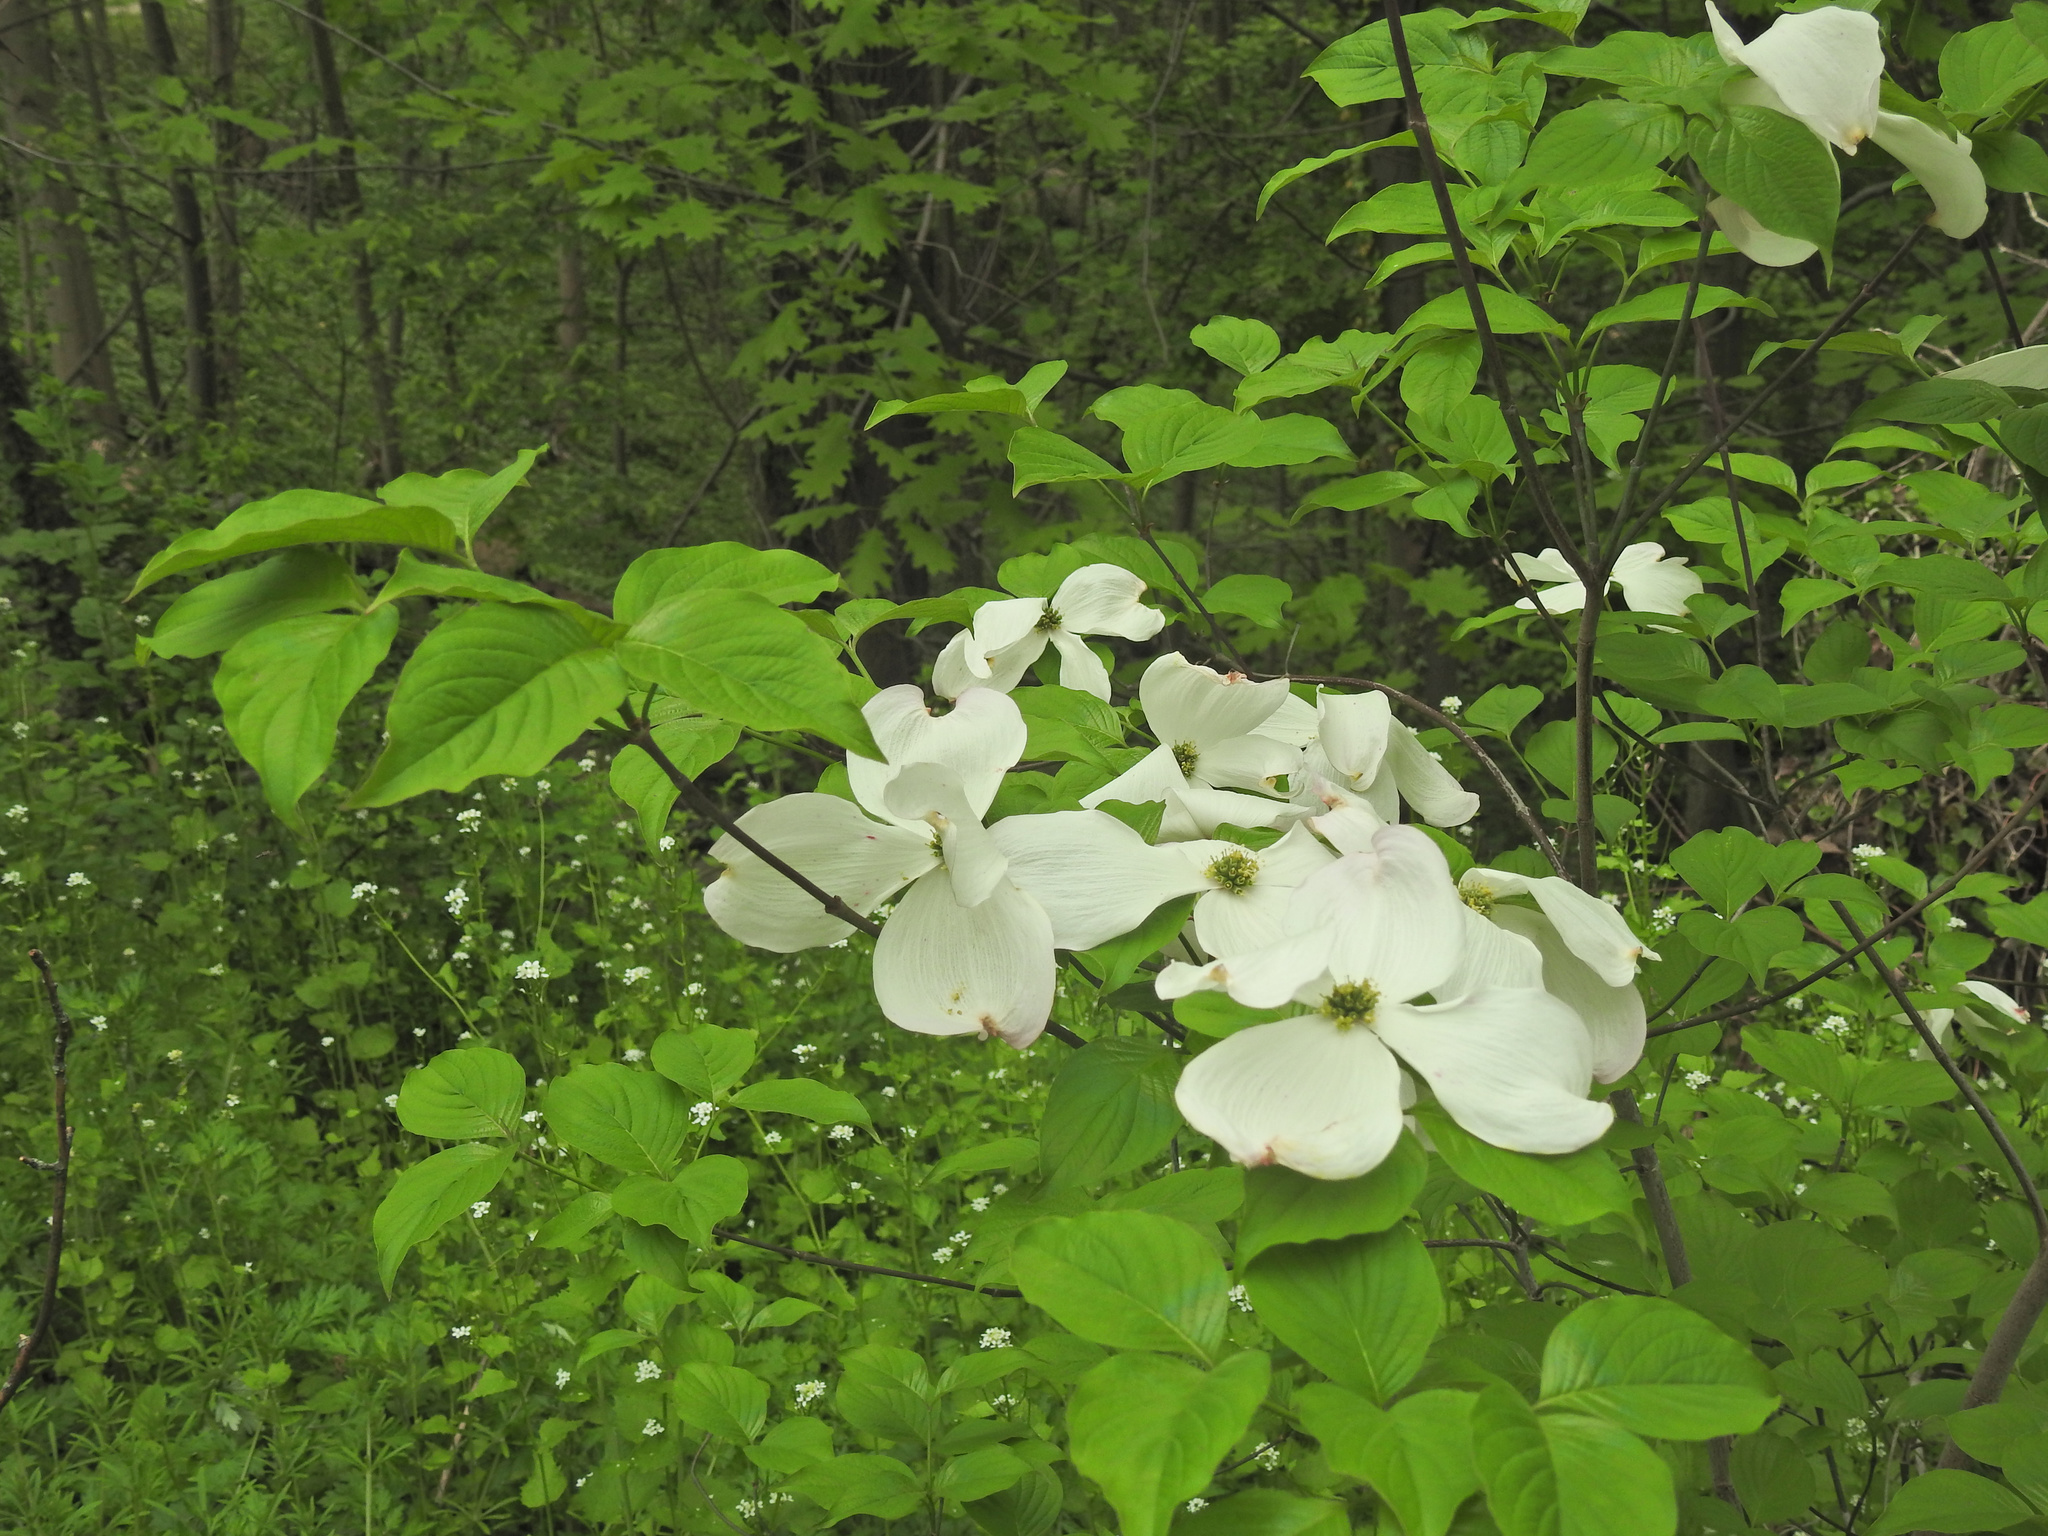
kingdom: Plantae
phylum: Tracheophyta
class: Magnoliopsida
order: Cornales
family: Cornaceae
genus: Cornus
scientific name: Cornus florida
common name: Flowering dogwood
